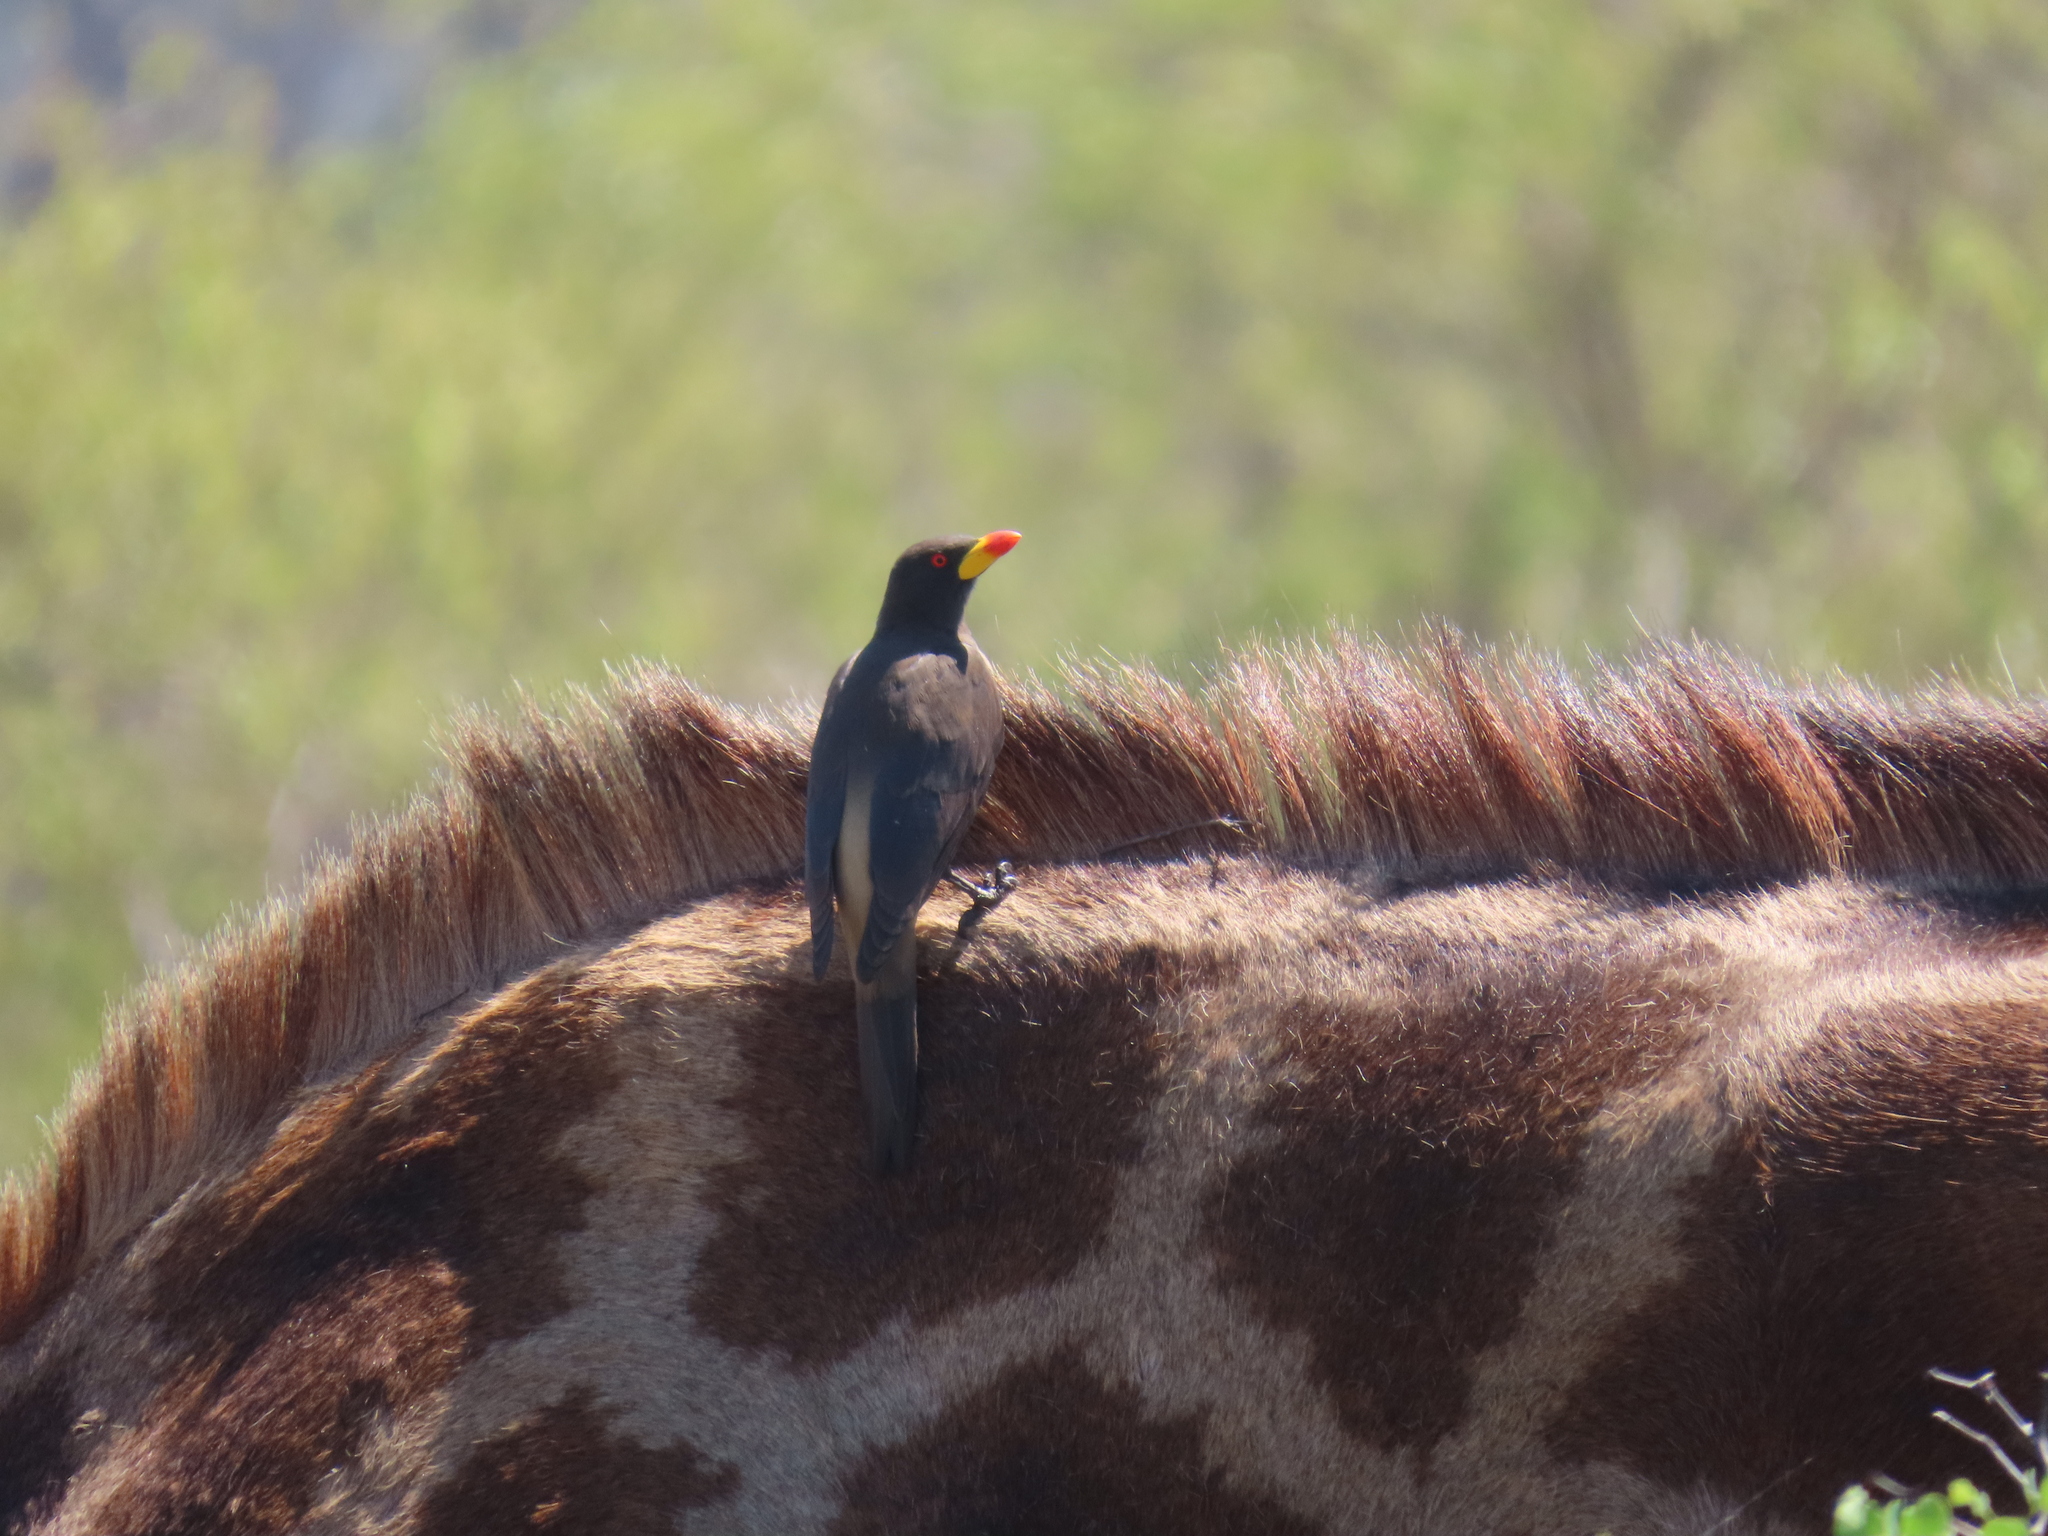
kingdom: Animalia
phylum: Chordata
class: Aves
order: Passeriformes
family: Buphagidae
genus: Buphagus
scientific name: Buphagus africanus
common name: Yellow-billed oxpecker
